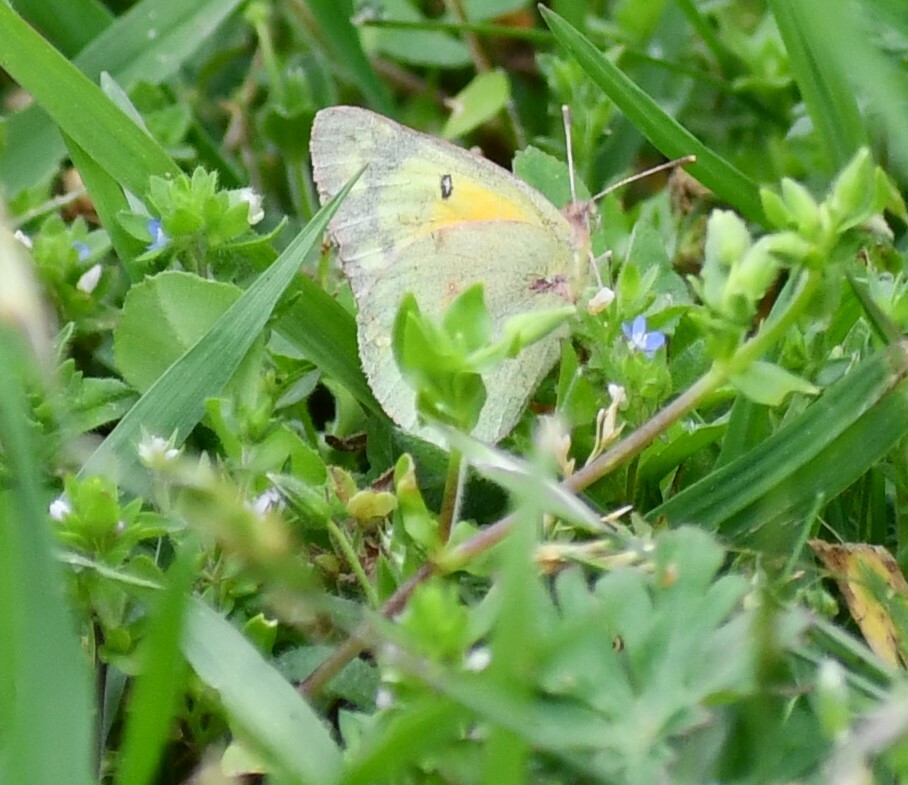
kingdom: Animalia
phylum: Arthropoda
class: Insecta
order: Lepidoptera
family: Pieridae
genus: Colias
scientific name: Colias eurytheme
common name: Alfalfa butterfly
